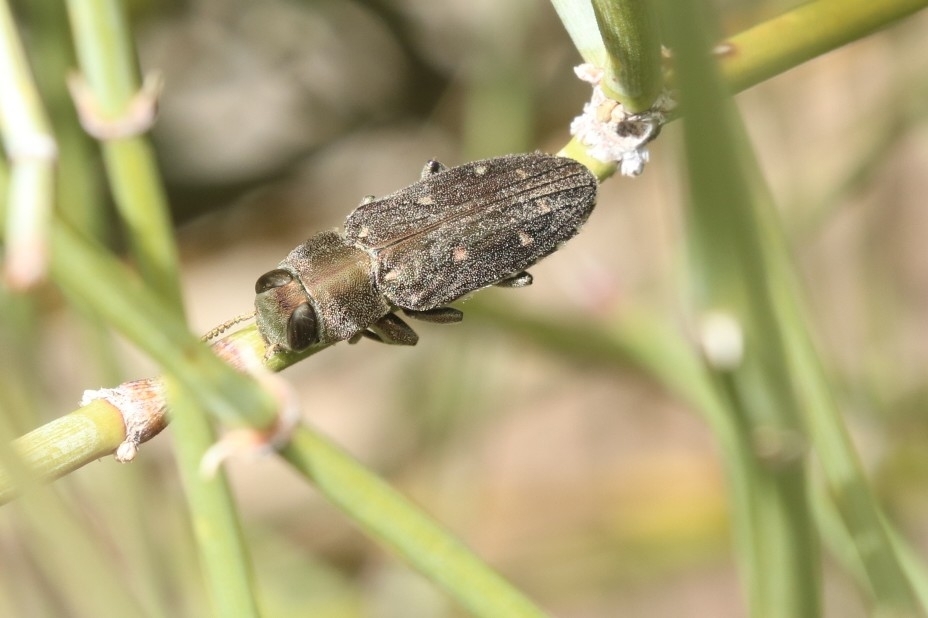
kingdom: Animalia
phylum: Arthropoda
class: Insecta
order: Coleoptera
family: Buprestidae
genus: Chrysobothris
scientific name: Chrysobothris octocola
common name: Jewel beetle
